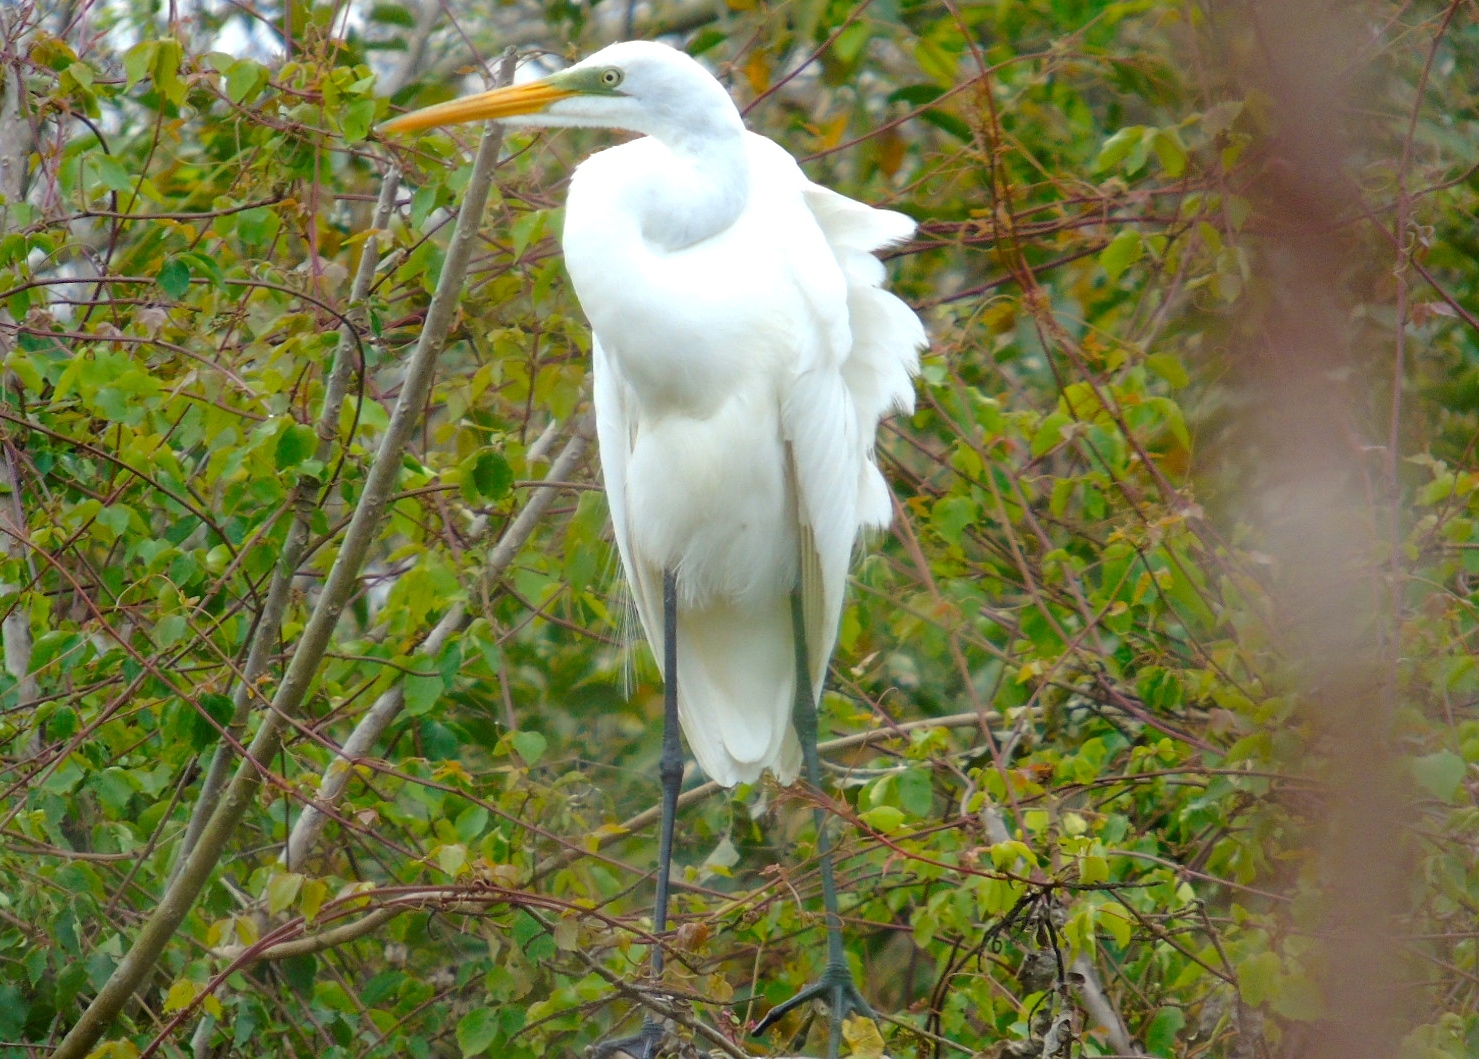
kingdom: Animalia
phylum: Chordata
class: Aves
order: Pelecaniformes
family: Ardeidae
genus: Ardea
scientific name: Ardea alba
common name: Great egret
